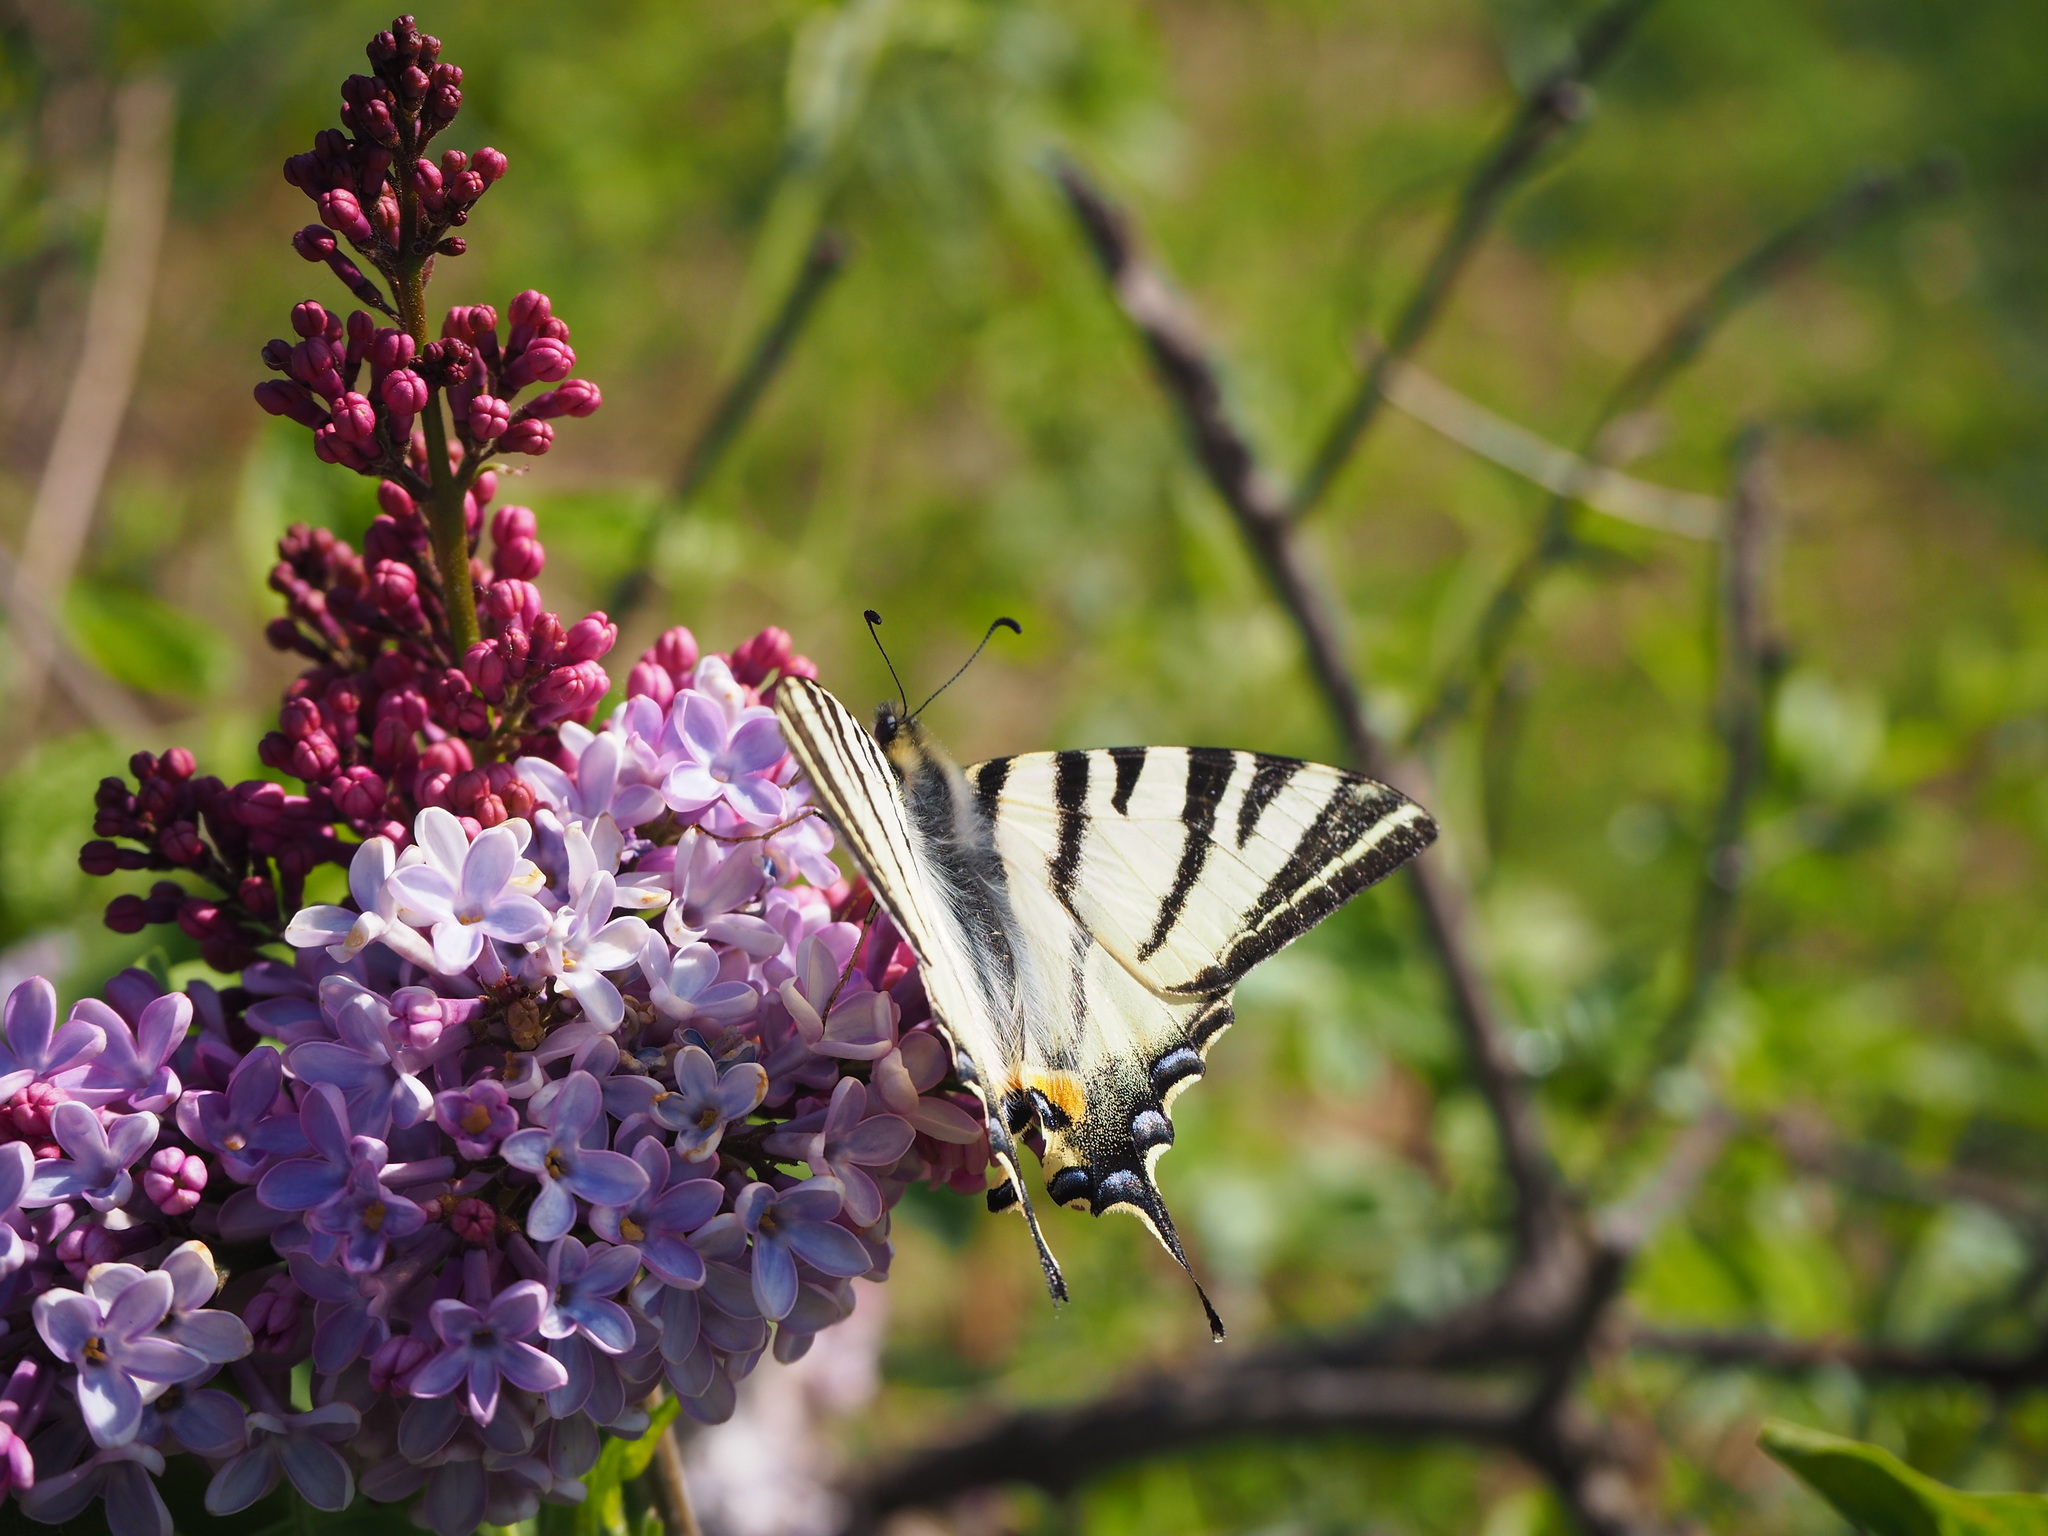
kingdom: Animalia
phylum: Arthropoda
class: Insecta
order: Lepidoptera
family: Papilionidae
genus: Iphiclides
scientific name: Iphiclides podalirius
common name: Scarce swallowtail
